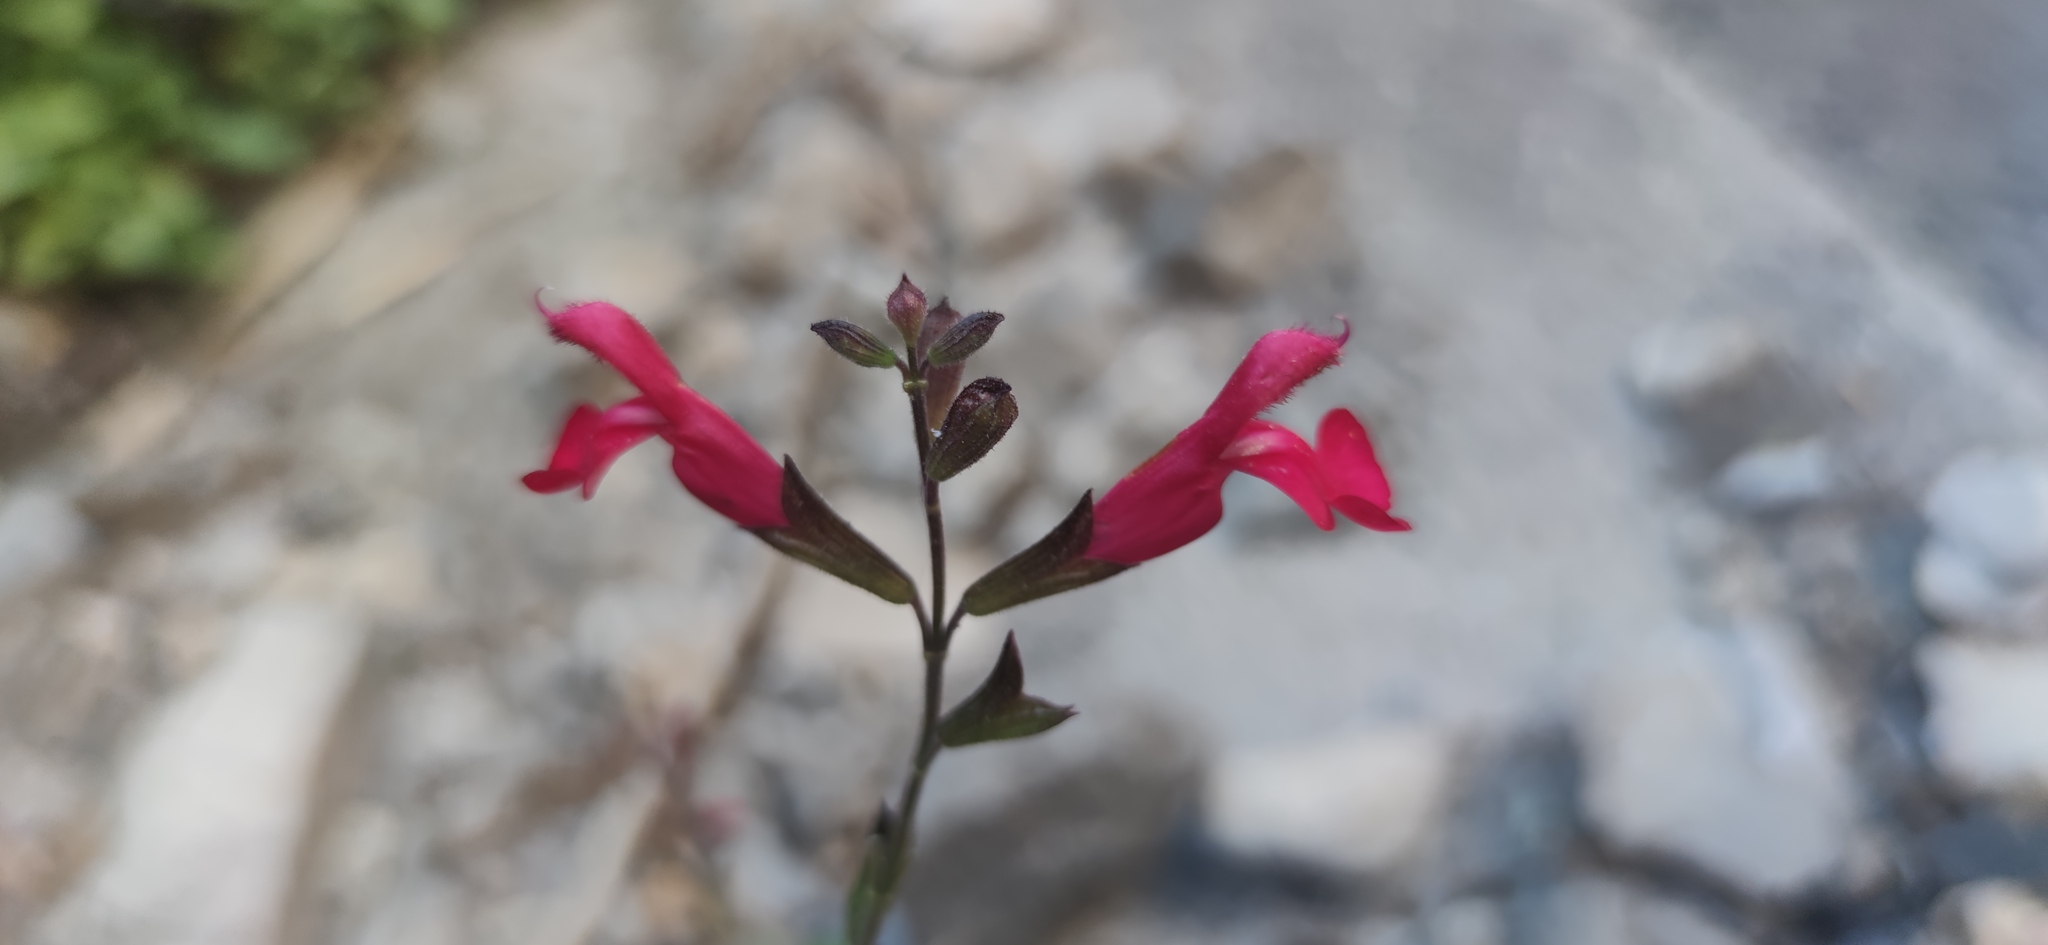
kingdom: Plantae
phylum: Tracheophyta
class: Magnoliopsida
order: Lamiales
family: Lamiaceae
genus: Salvia
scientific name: Salvia greggii
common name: Autumn sage
